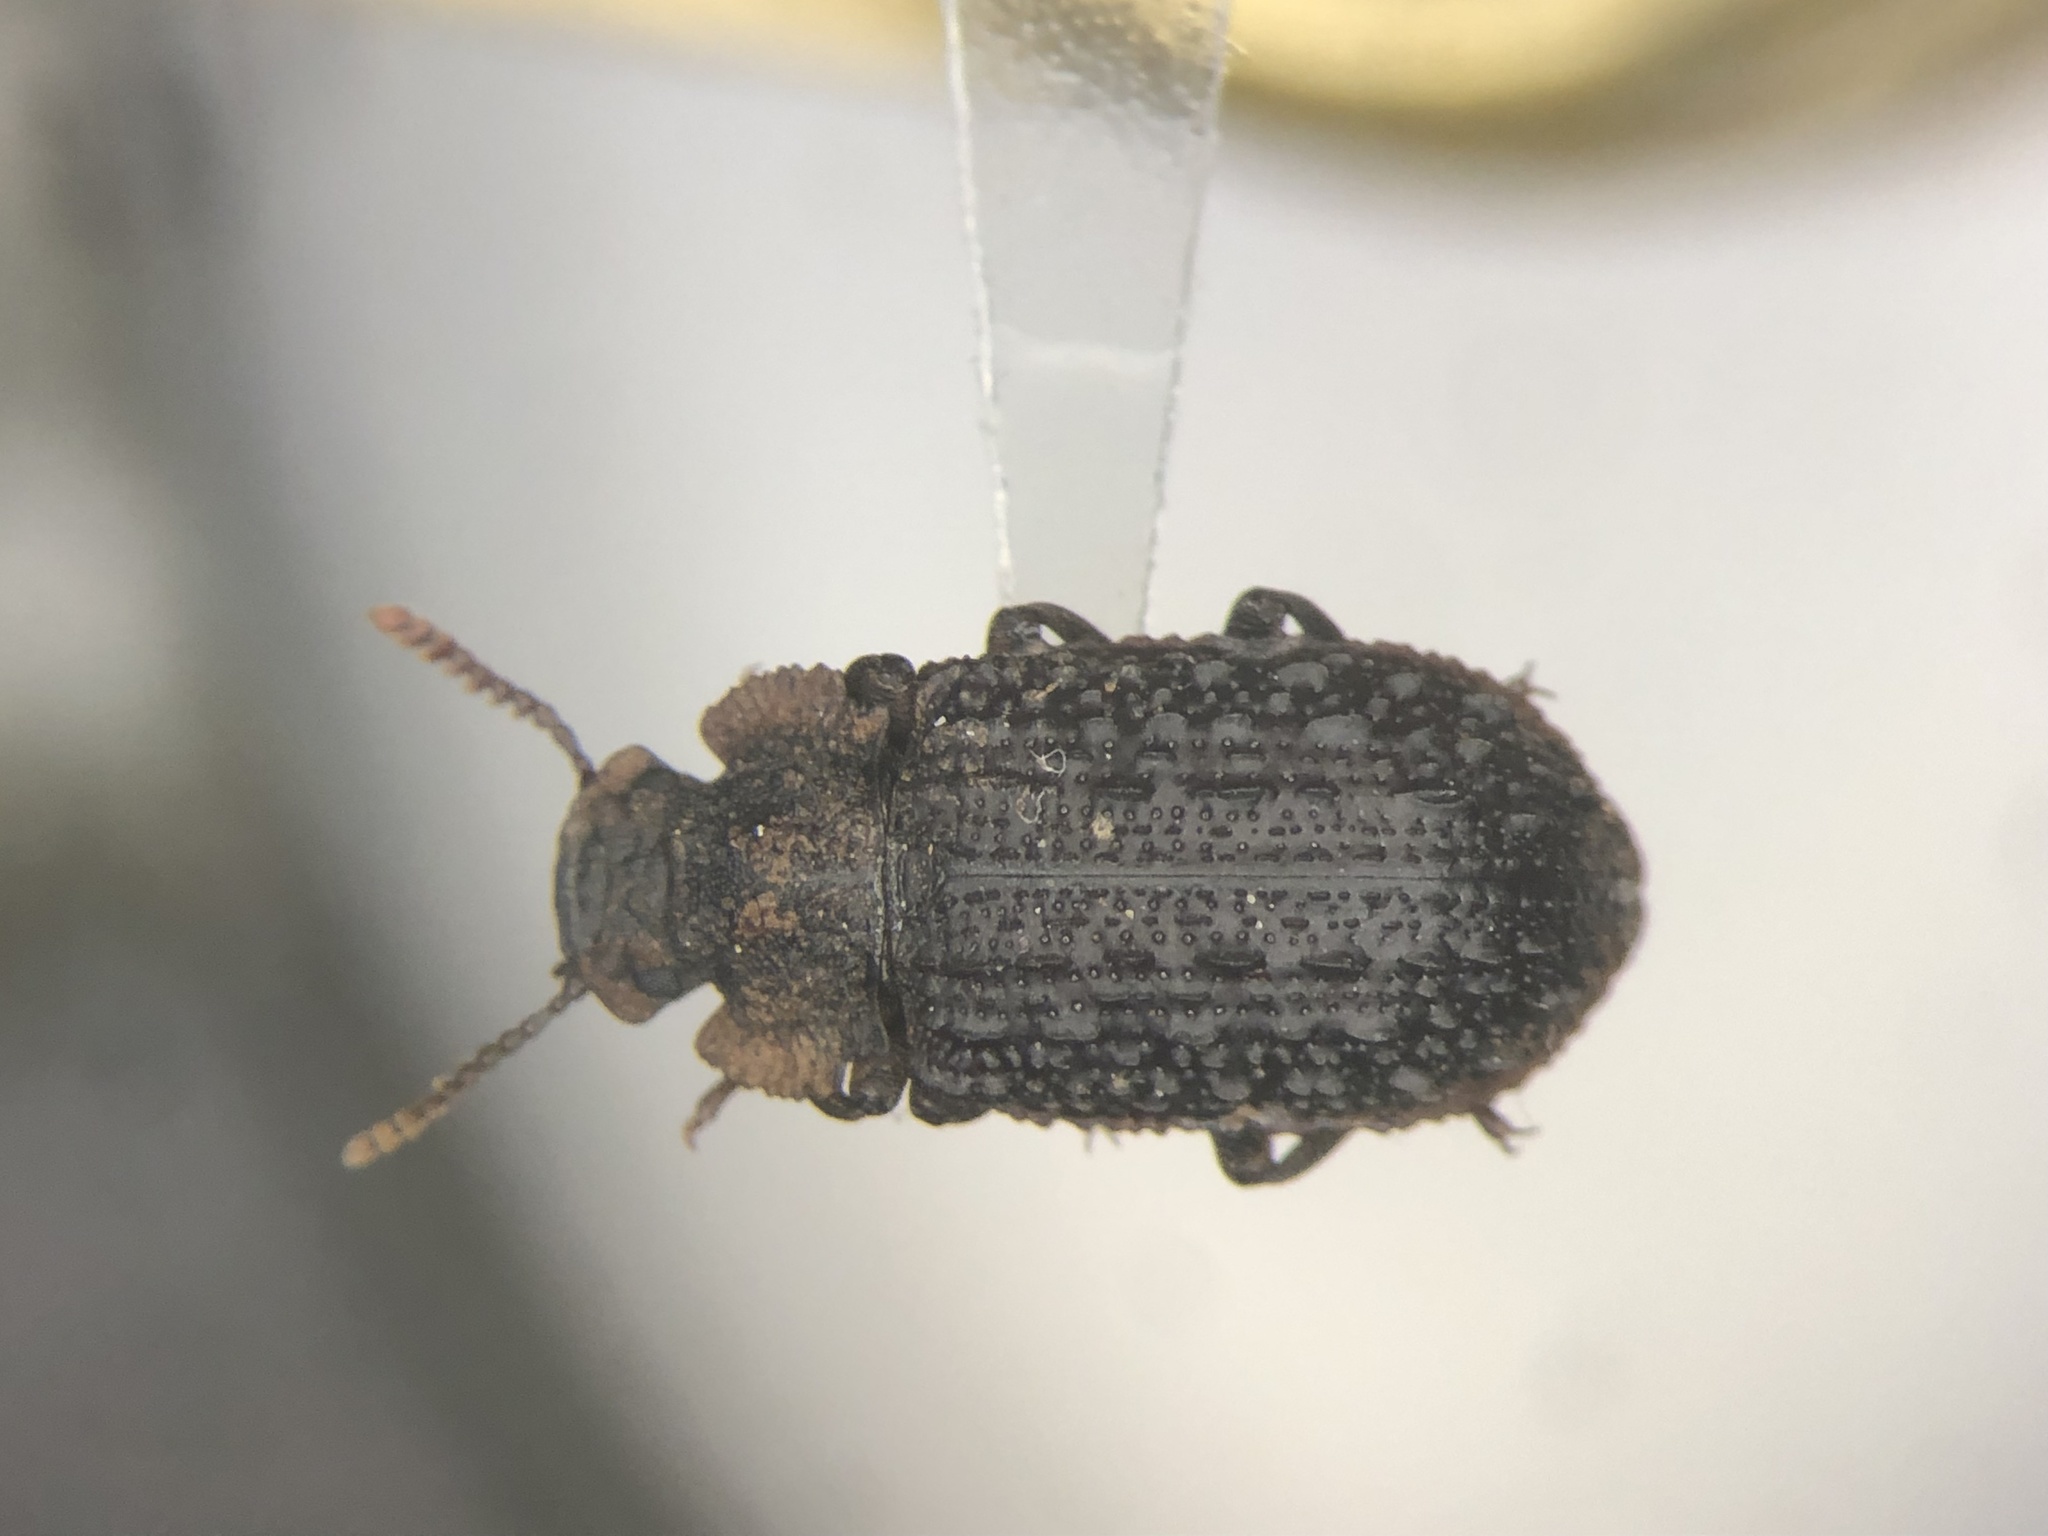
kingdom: Animalia
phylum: Arthropoda
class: Insecta
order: Coleoptera
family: Tenebrionidae
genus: Bolitophagus
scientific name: Bolitophagus corticola
